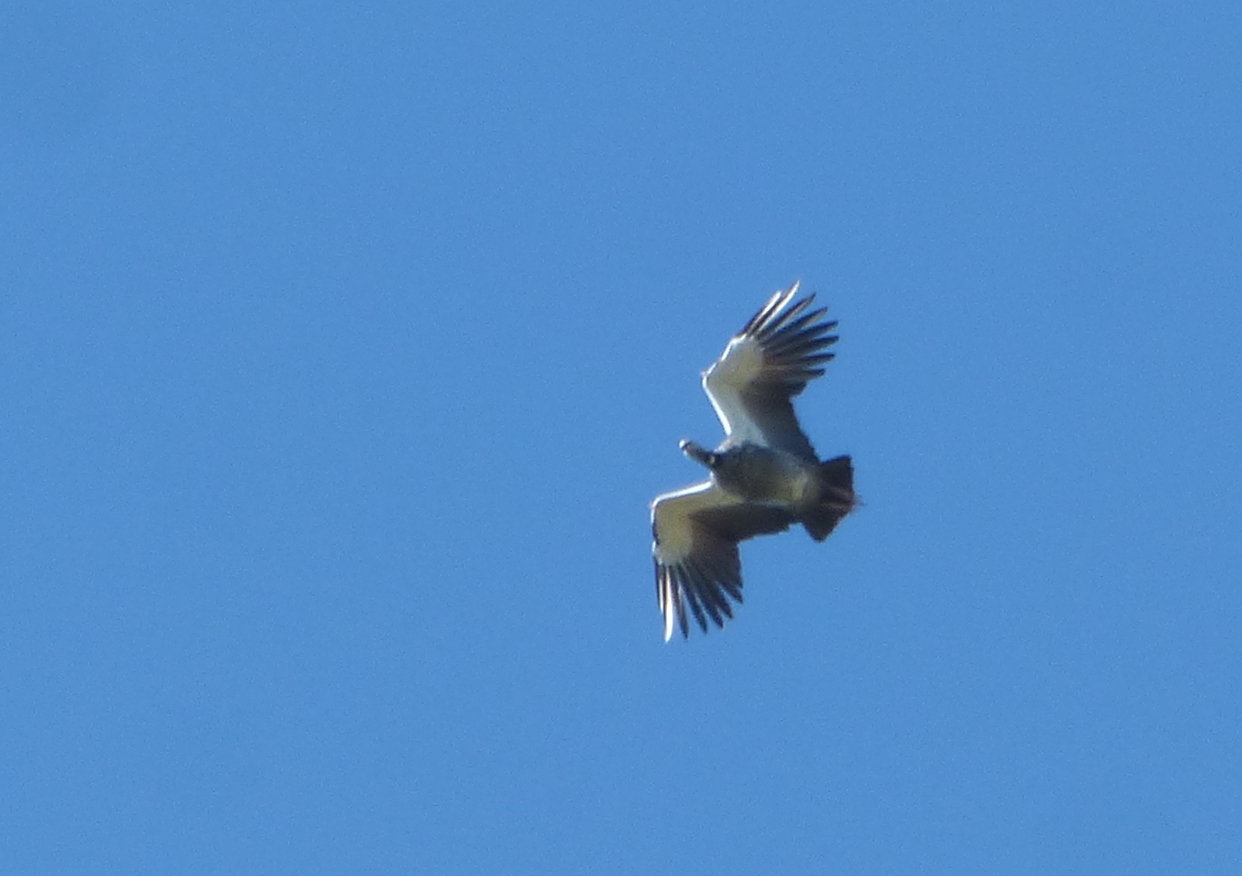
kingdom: Animalia
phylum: Chordata
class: Aves
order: Anseriformes
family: Anhimidae
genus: Chauna
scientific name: Chauna torquata
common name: Southern screamer
